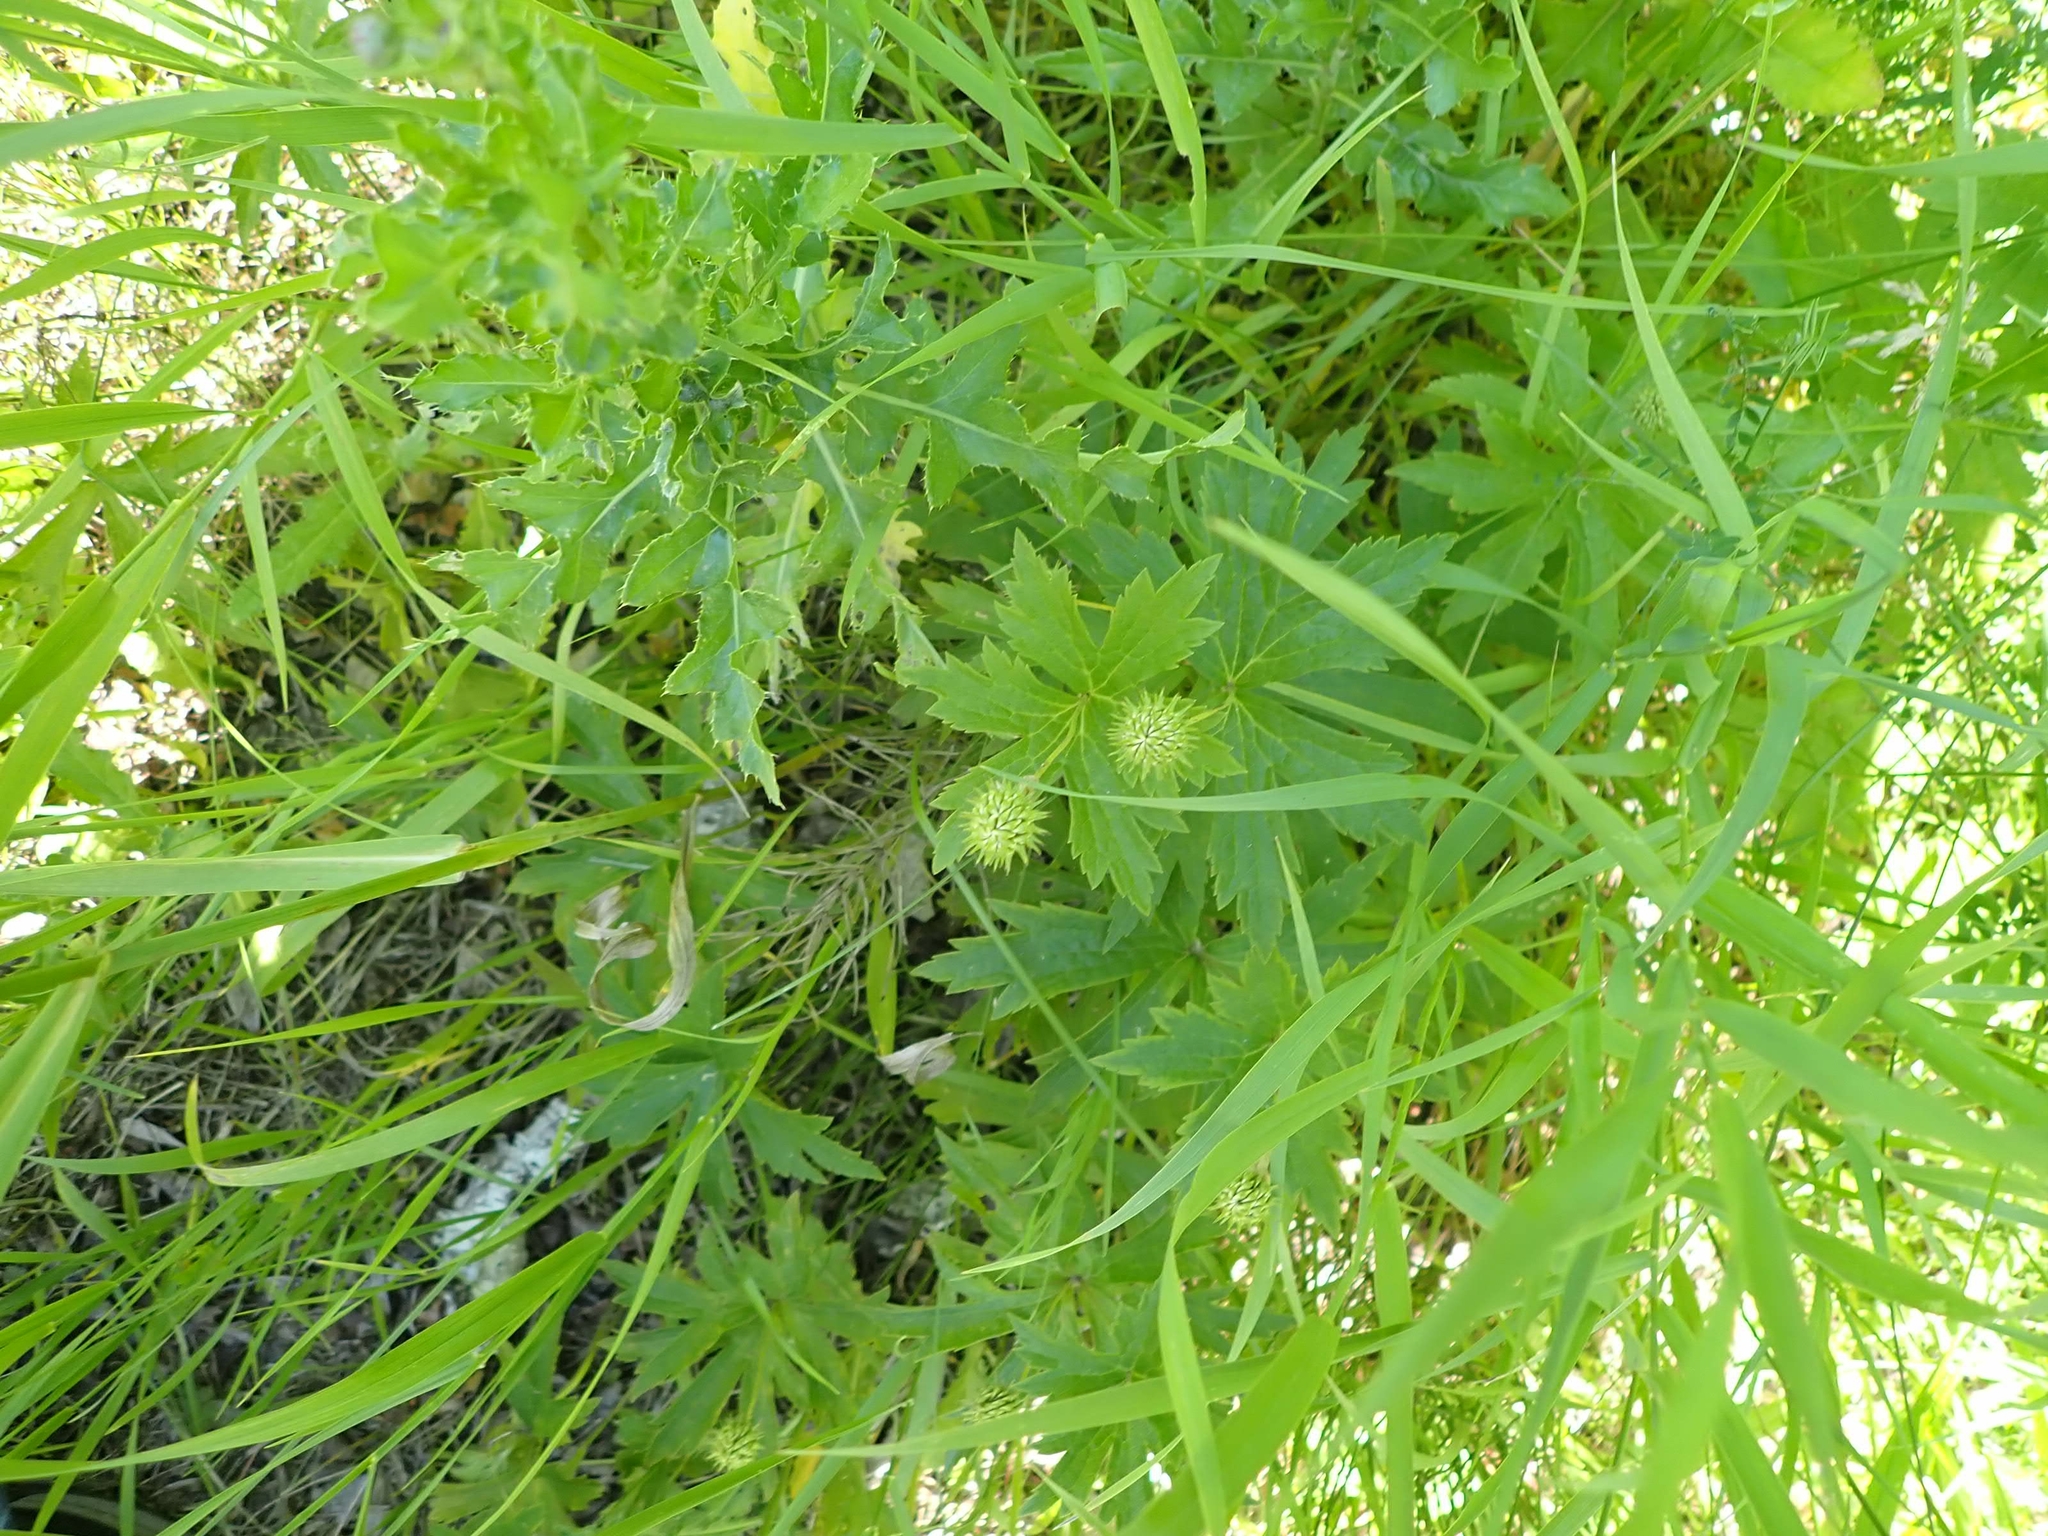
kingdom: Plantae
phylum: Tracheophyta
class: Magnoliopsida
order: Ranunculales
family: Ranunculaceae
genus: Anemonastrum
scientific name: Anemonastrum canadense
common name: Canada anemone
